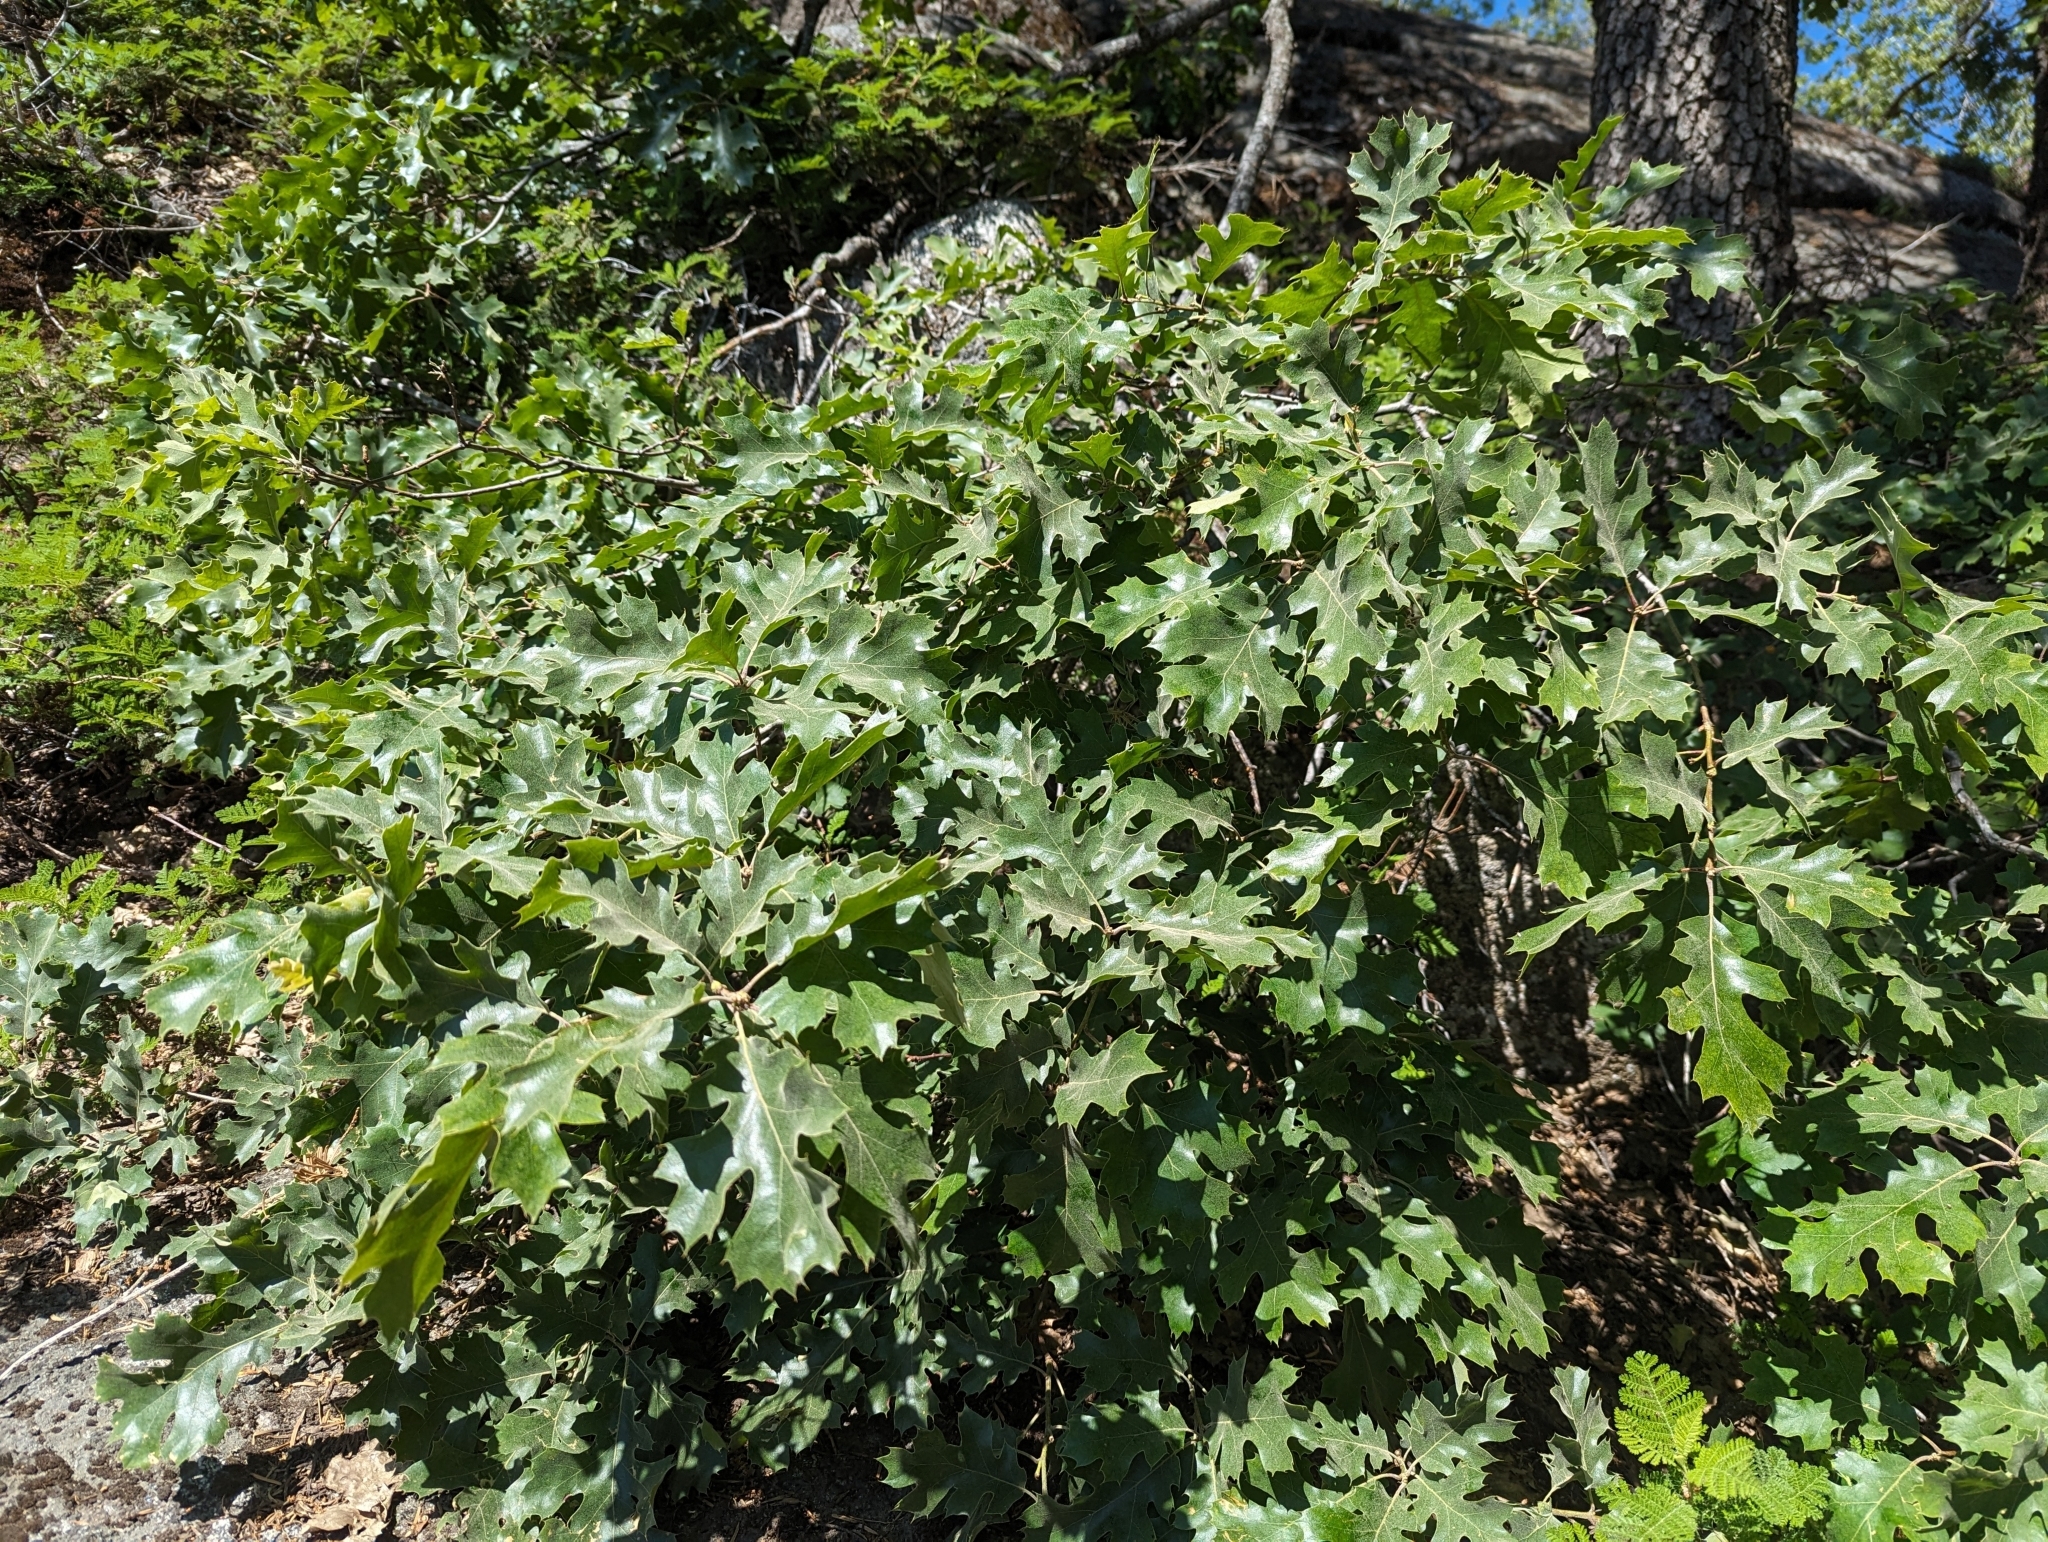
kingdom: Plantae
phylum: Tracheophyta
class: Magnoliopsida
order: Fagales
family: Fagaceae
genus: Quercus
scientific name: Quercus kelloggii
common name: California black oak
